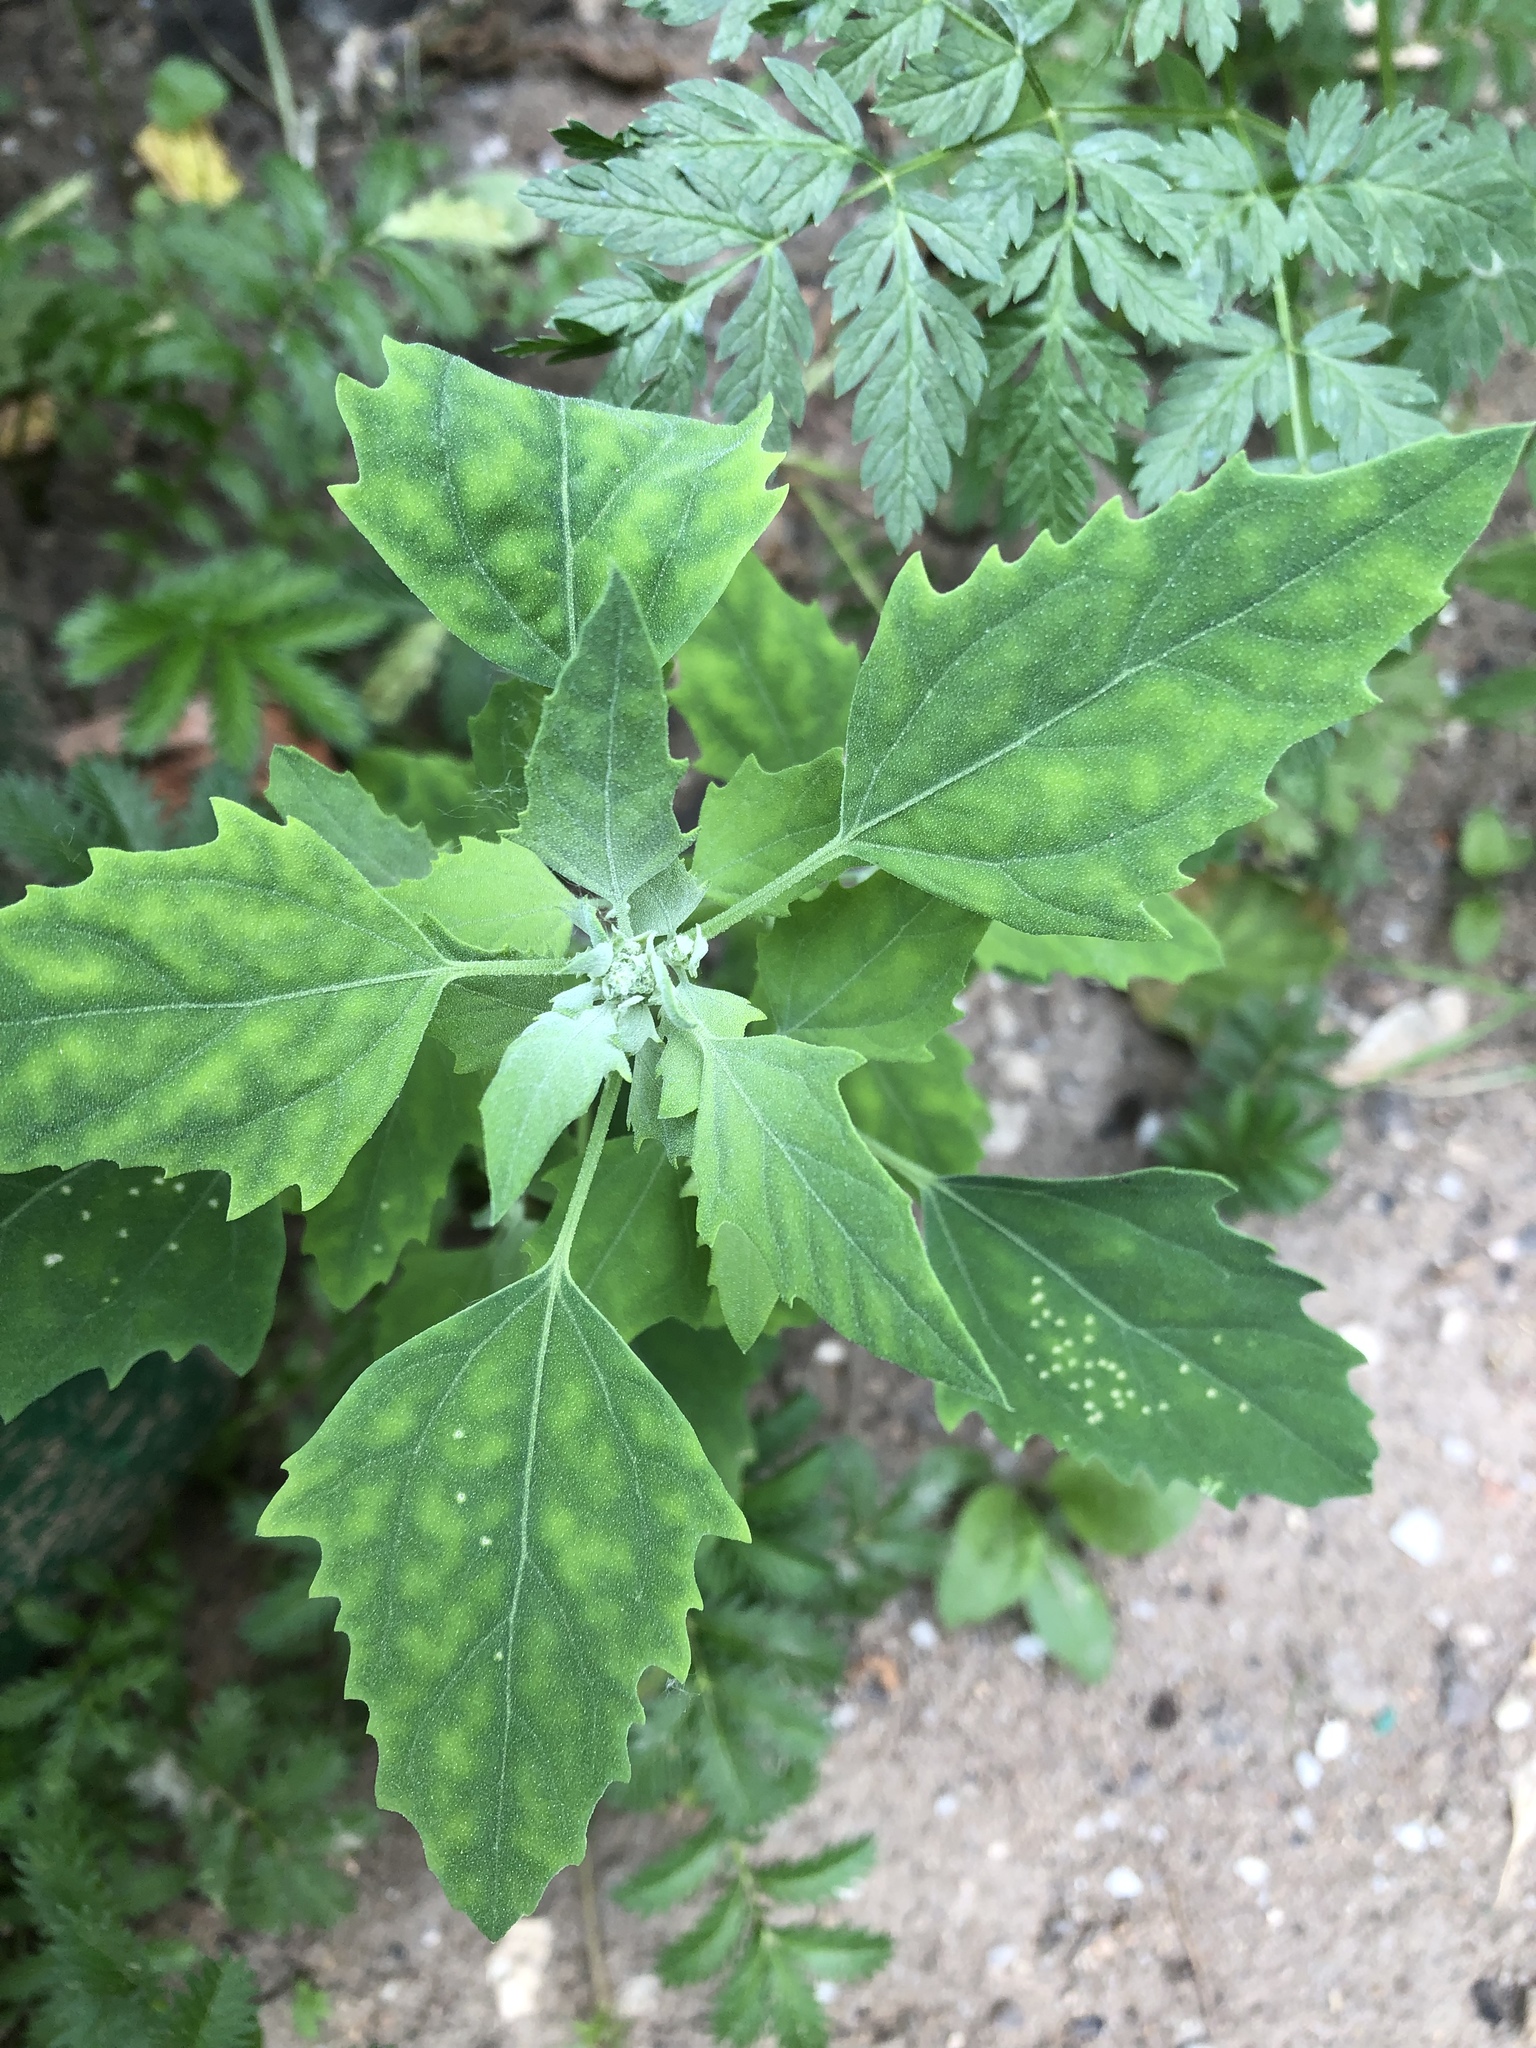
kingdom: Plantae
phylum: Tracheophyta
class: Magnoliopsida
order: Caryophyllales
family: Amaranthaceae
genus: Chenopodium
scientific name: Chenopodium album
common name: Fat-hen
